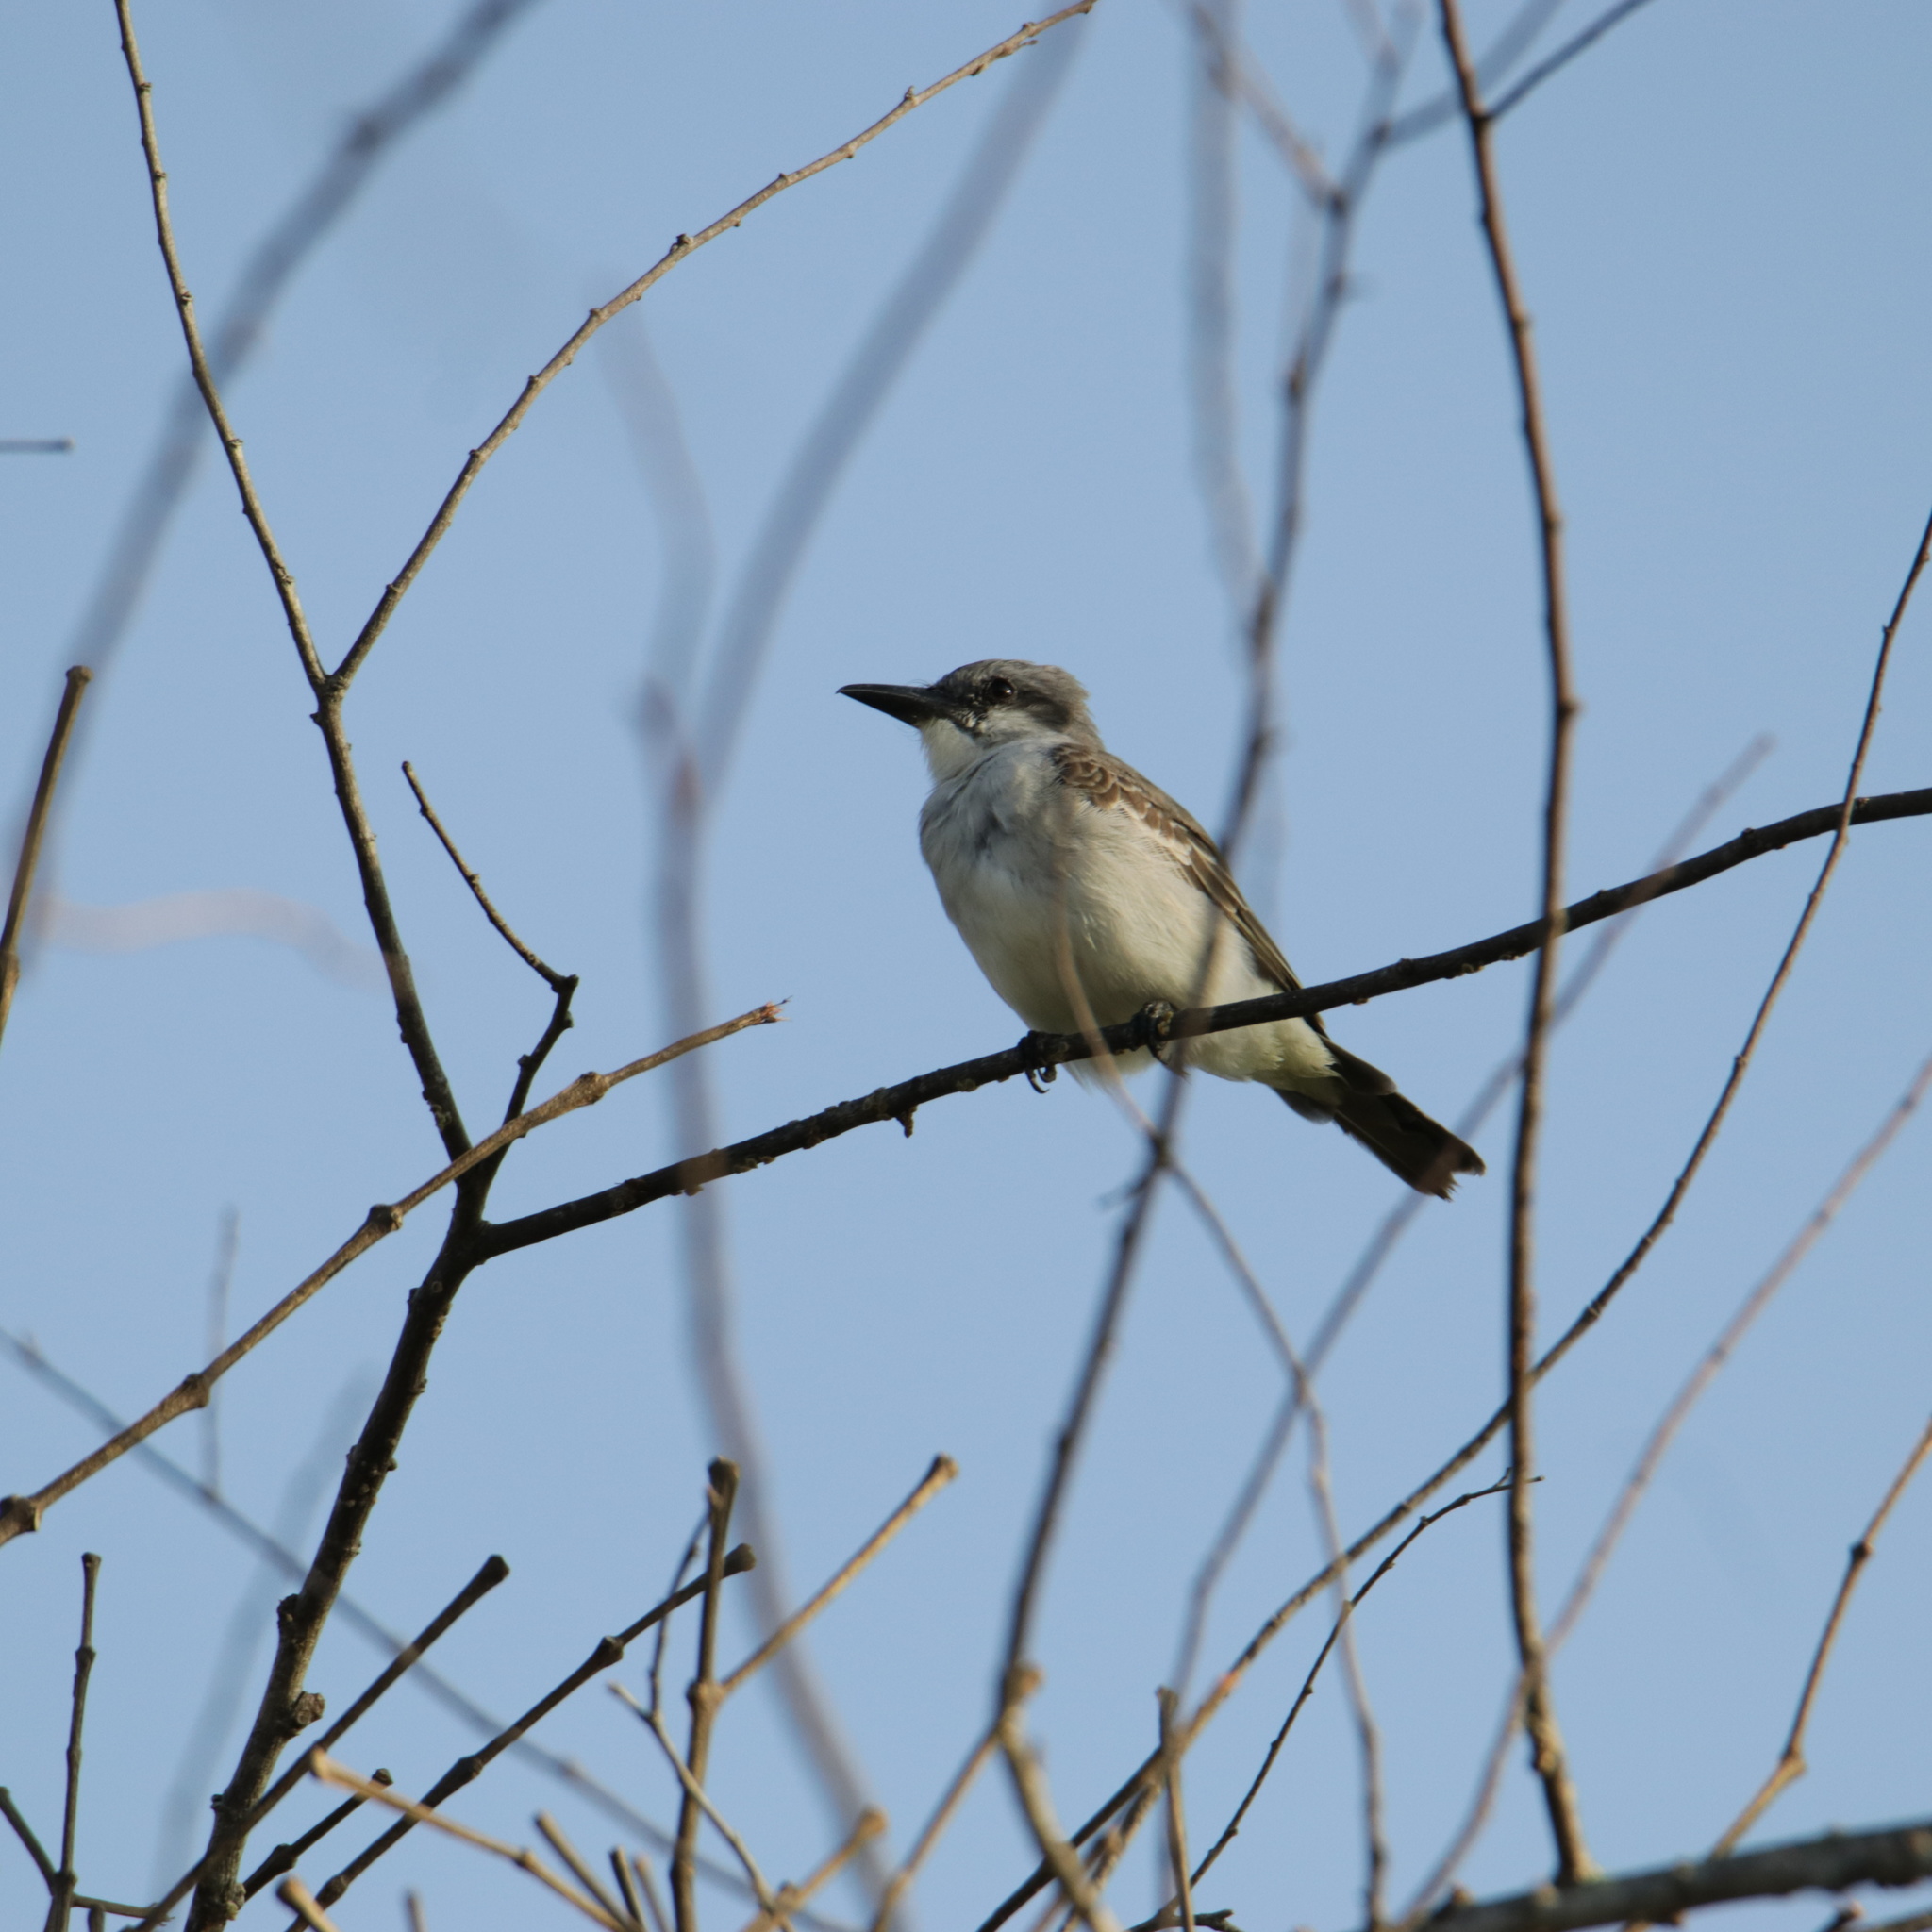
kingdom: Animalia
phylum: Chordata
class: Aves
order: Passeriformes
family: Tyrannidae
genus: Tyrannus
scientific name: Tyrannus dominicensis
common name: Gray kingbird
